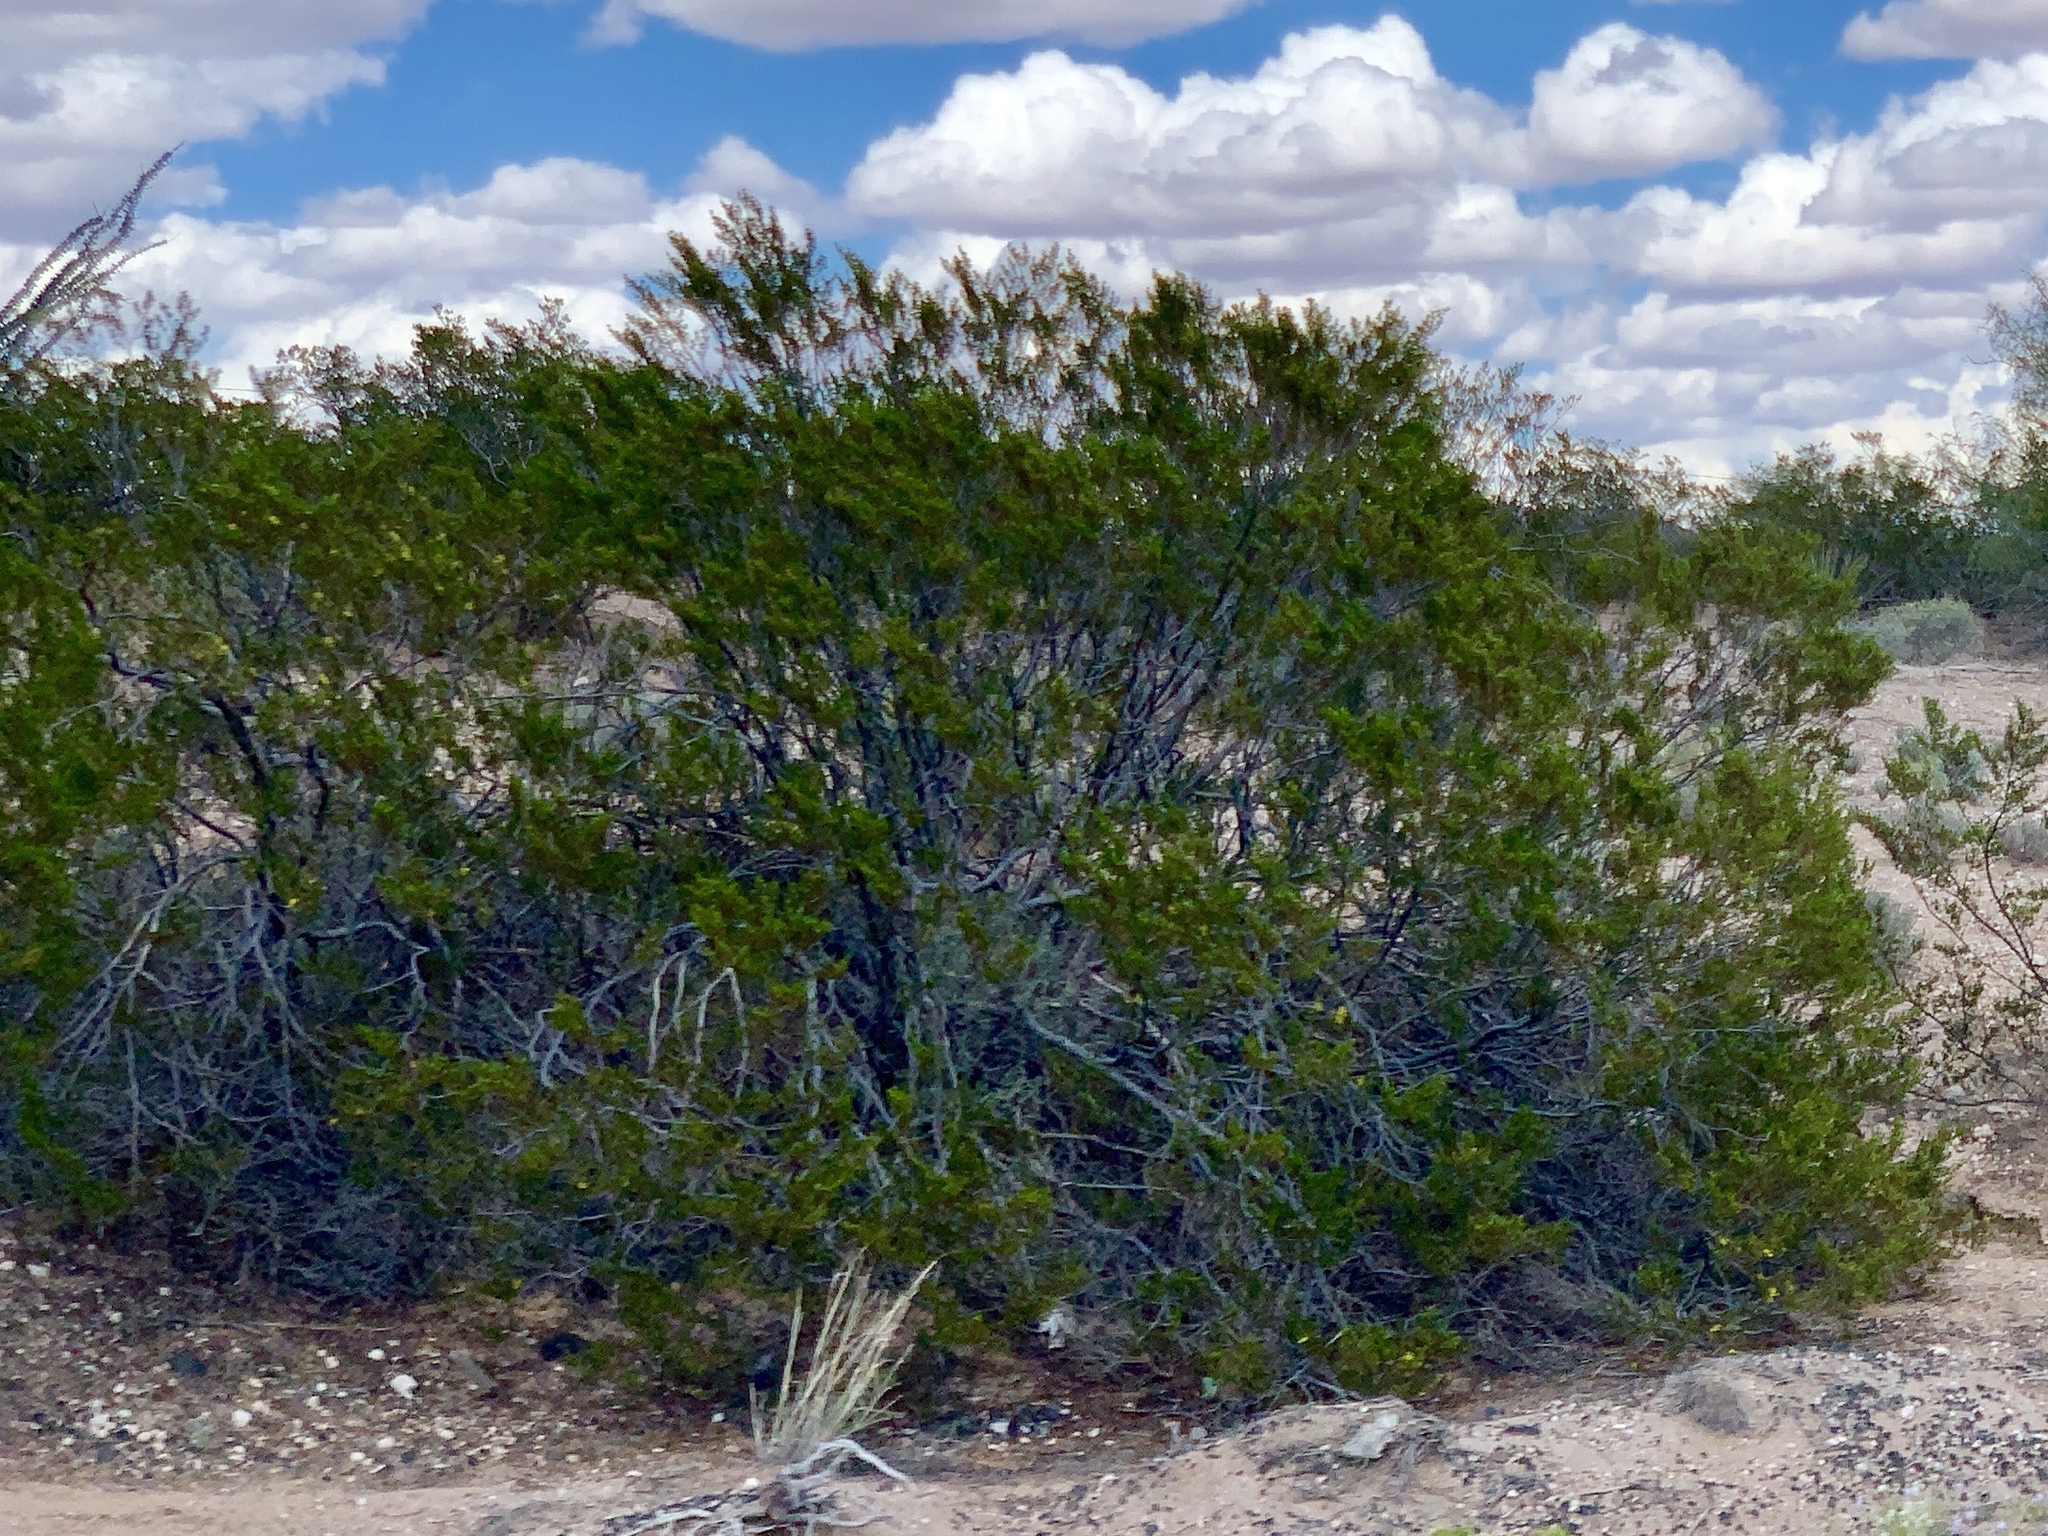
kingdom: Plantae
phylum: Tracheophyta
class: Magnoliopsida
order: Zygophyllales
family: Zygophyllaceae
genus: Larrea
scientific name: Larrea tridentata
